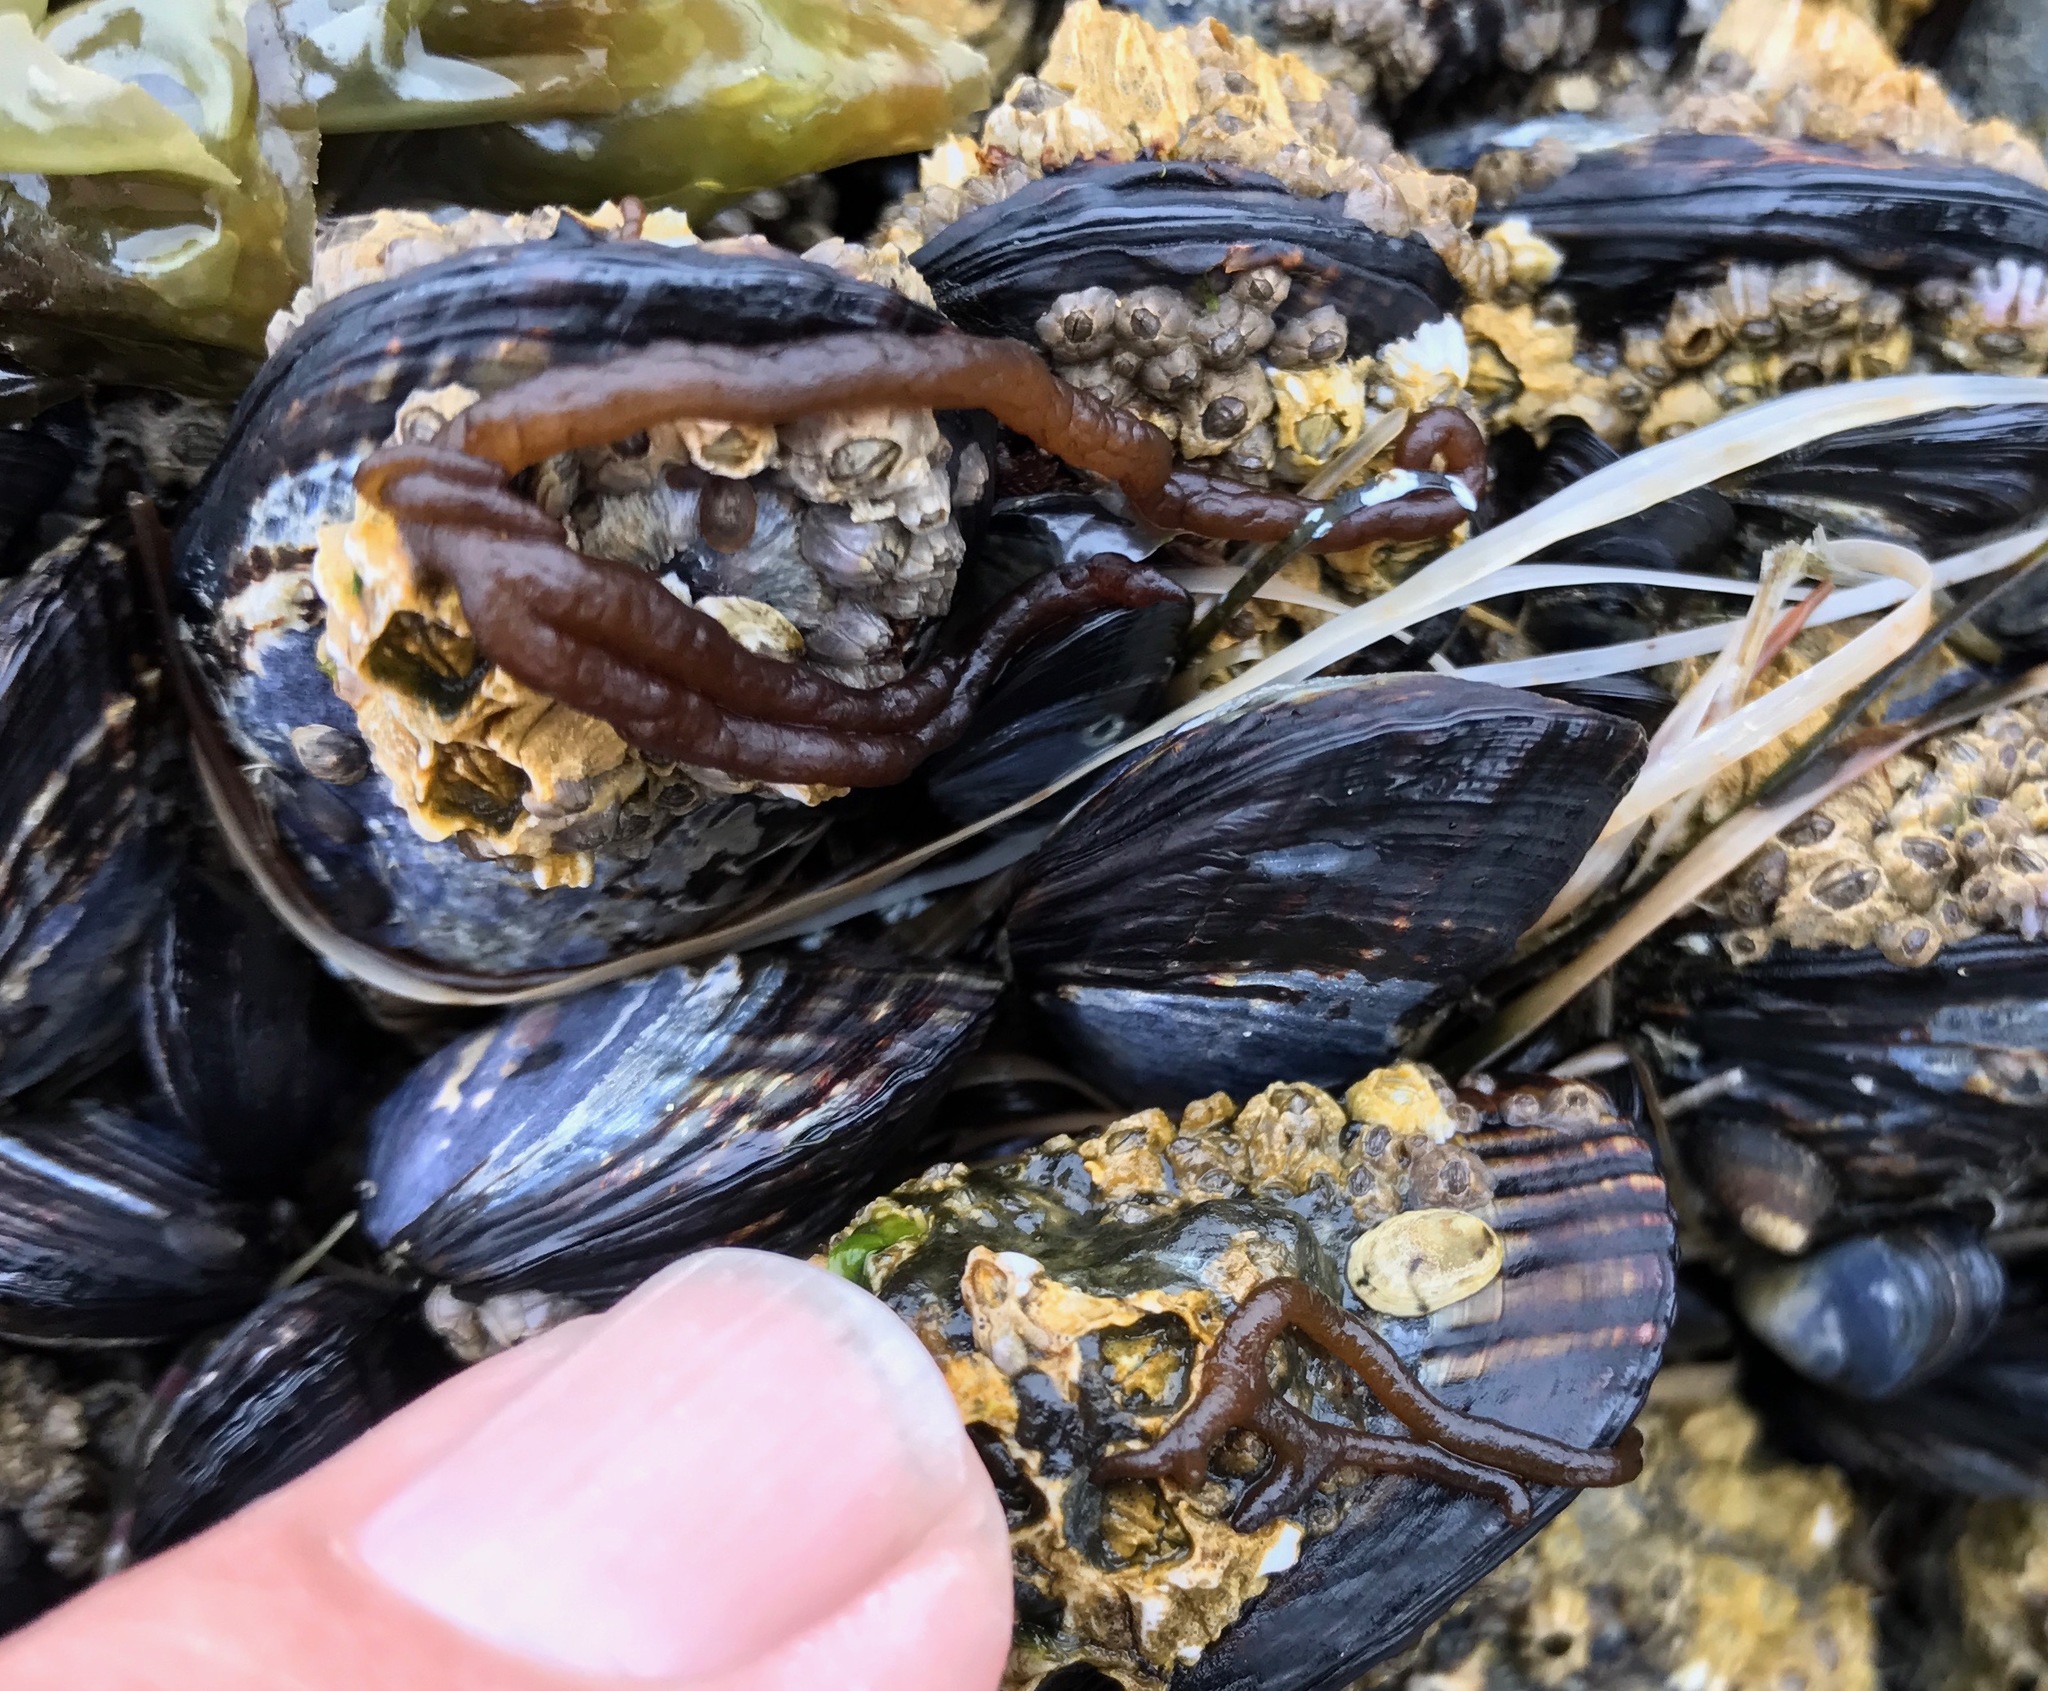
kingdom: Plantae
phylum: Rhodophyta
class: Florideophyceae
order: Nemaliales
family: Nemaliaceae
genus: Nemalion
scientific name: Nemalion elminthoides
